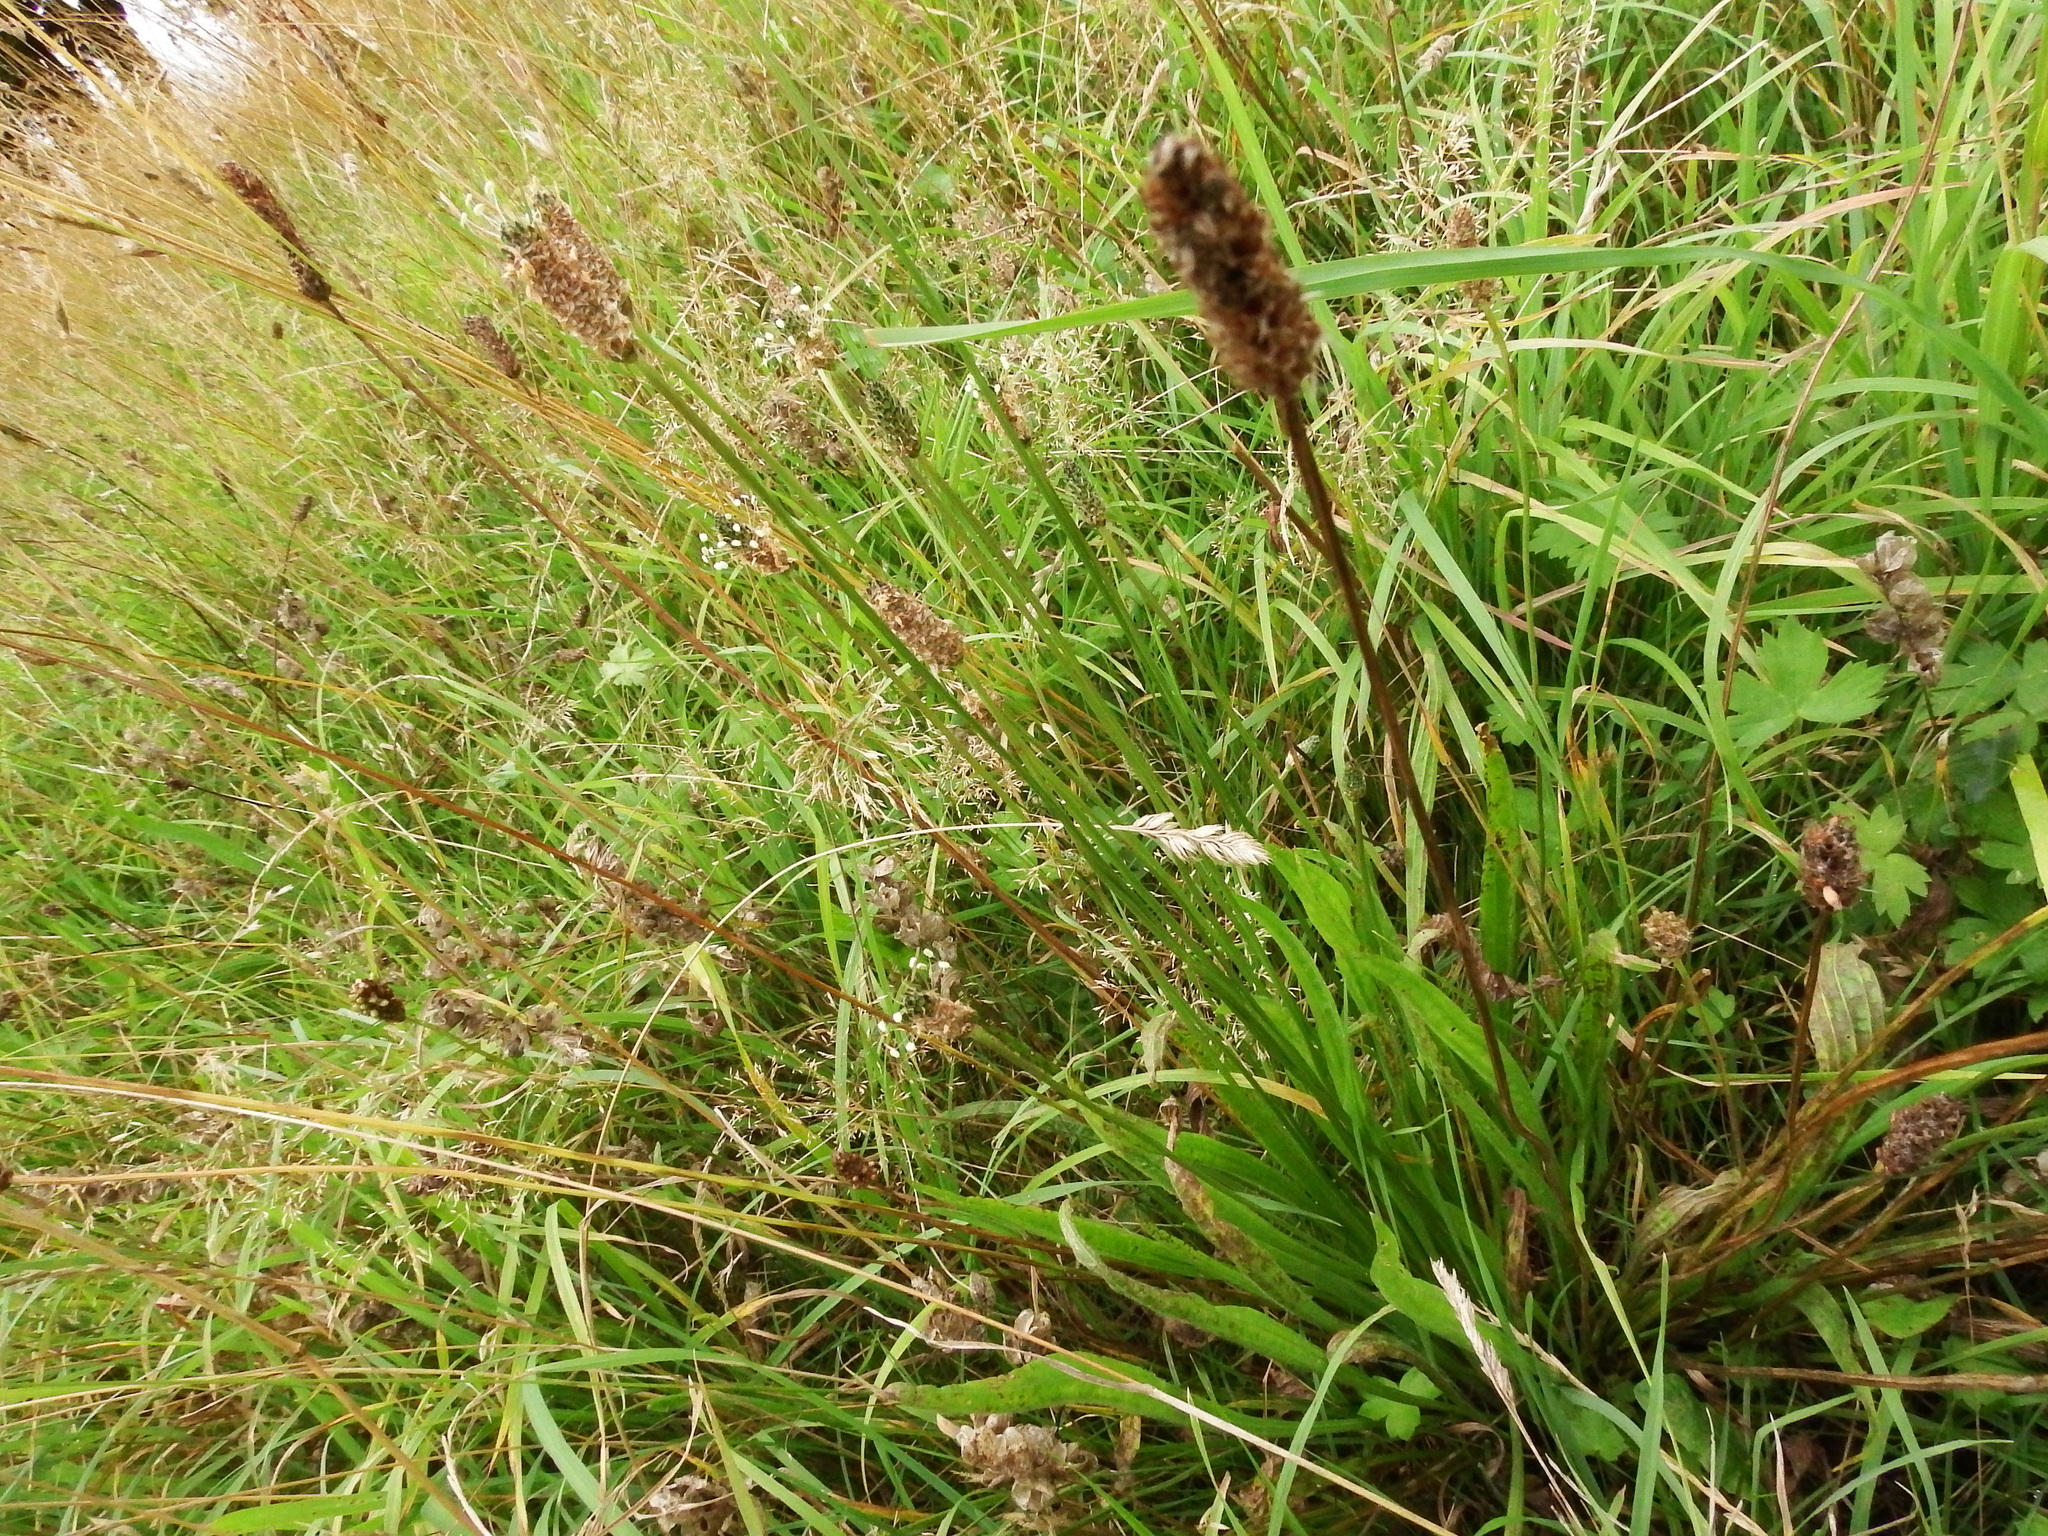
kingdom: Plantae
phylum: Tracheophyta
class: Magnoliopsida
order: Lamiales
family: Plantaginaceae
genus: Plantago
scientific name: Plantago lanceolata
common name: Ribwort plantain
